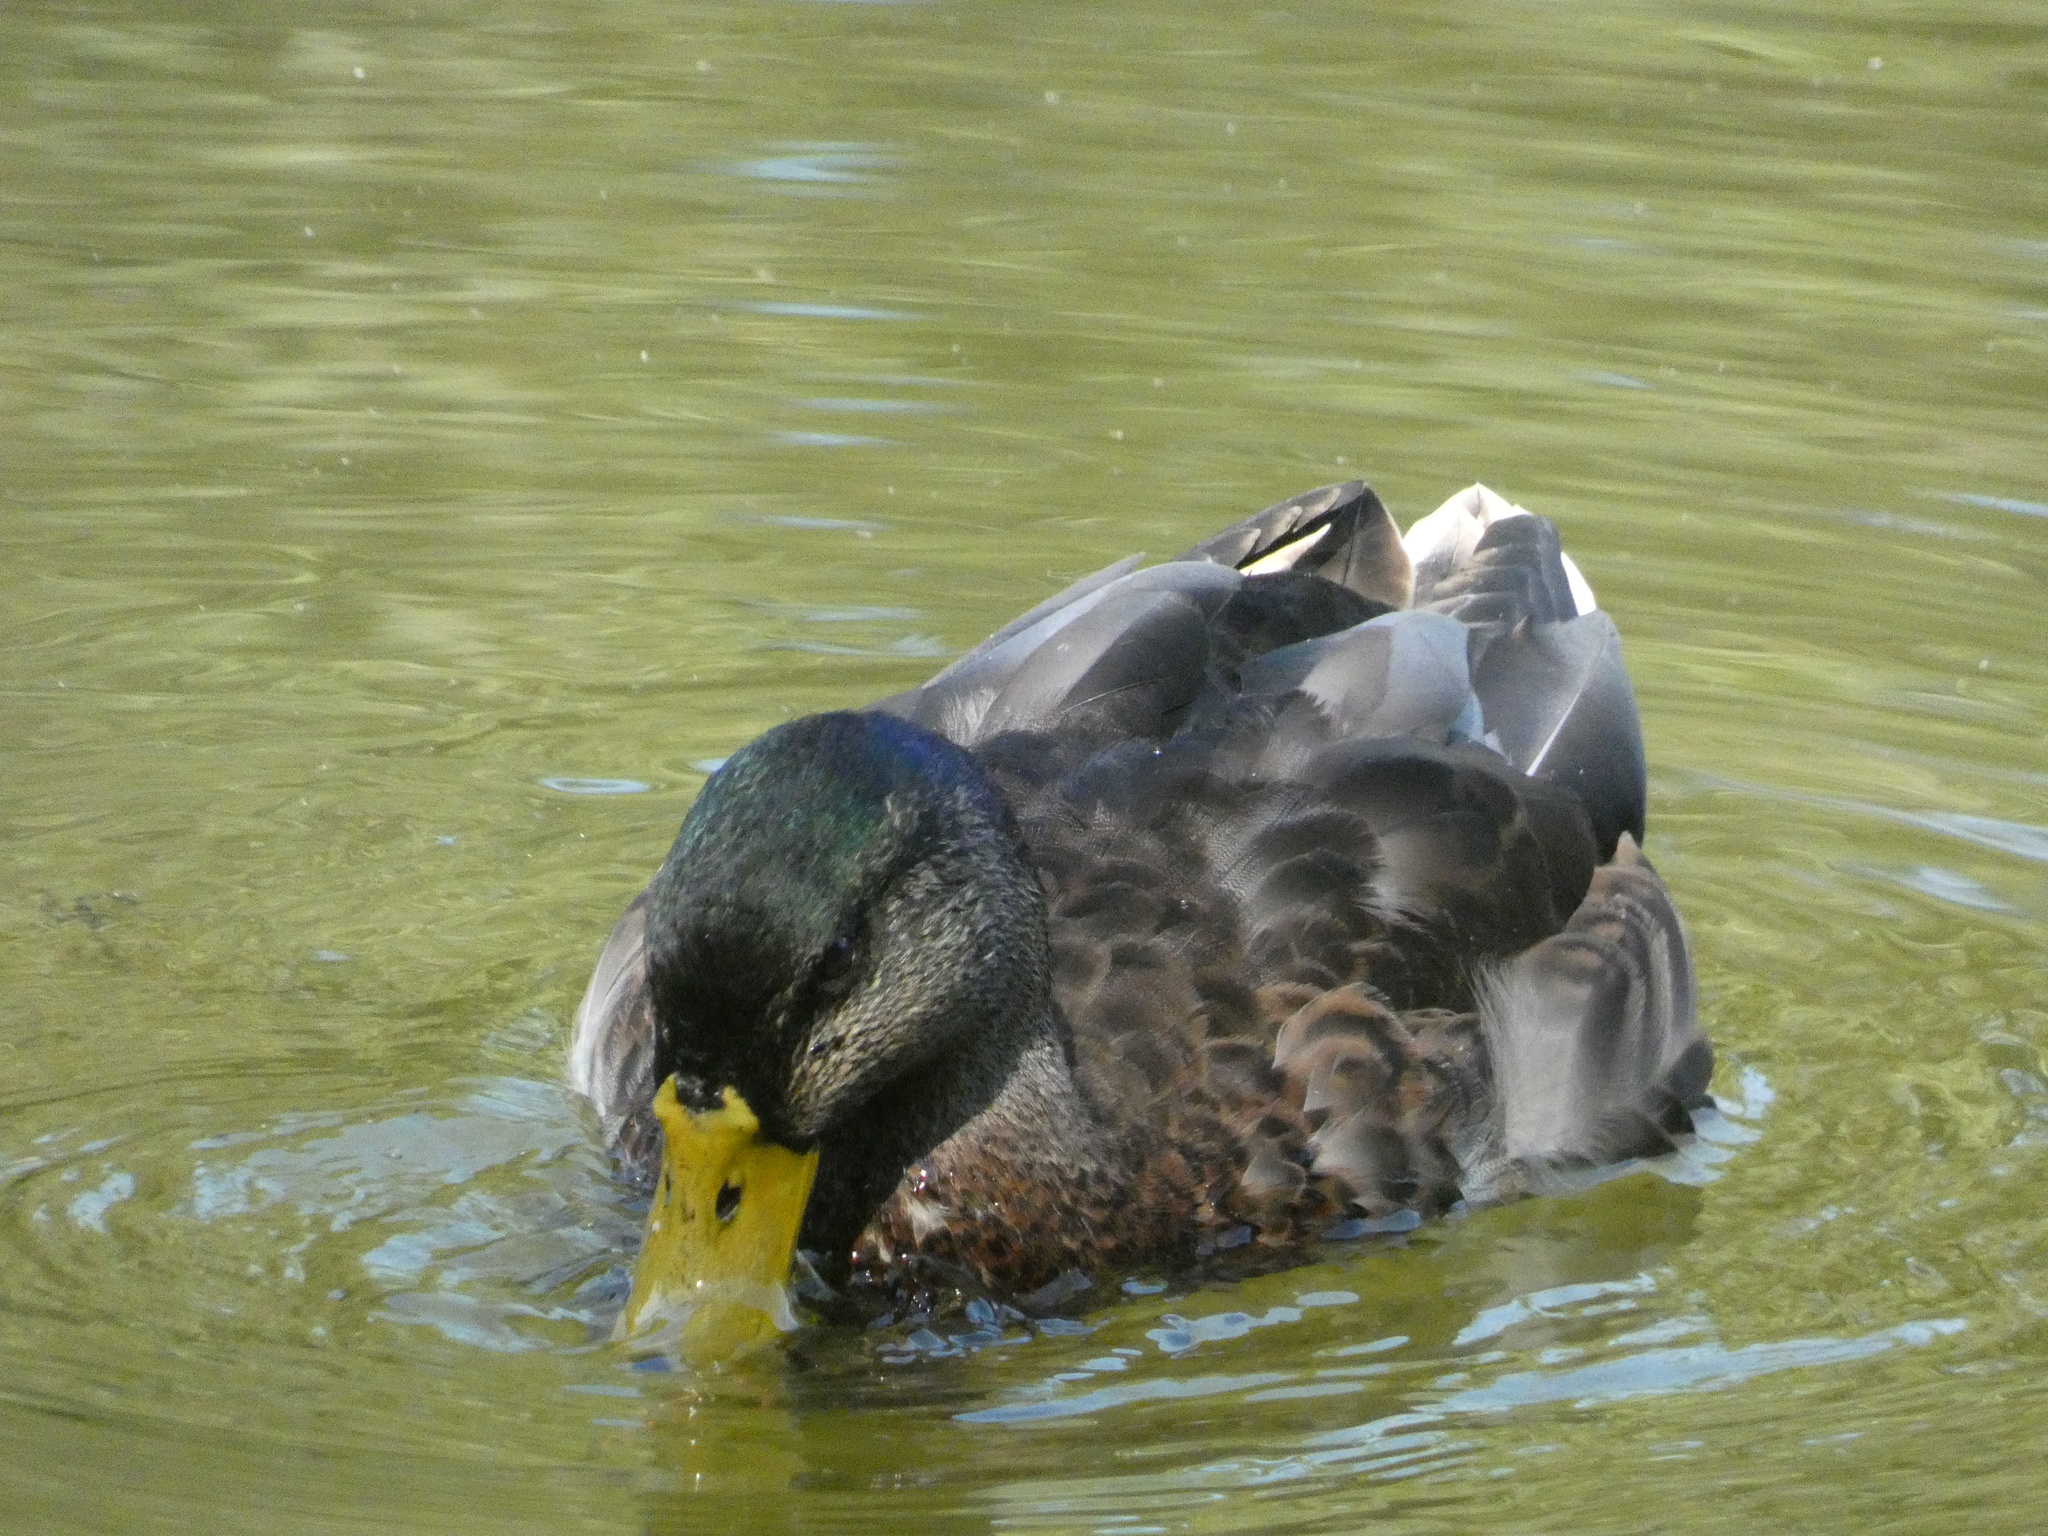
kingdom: Animalia
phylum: Chordata
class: Aves
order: Anseriformes
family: Anatidae
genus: Anas
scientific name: Anas platyrhynchos
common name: Mallard
